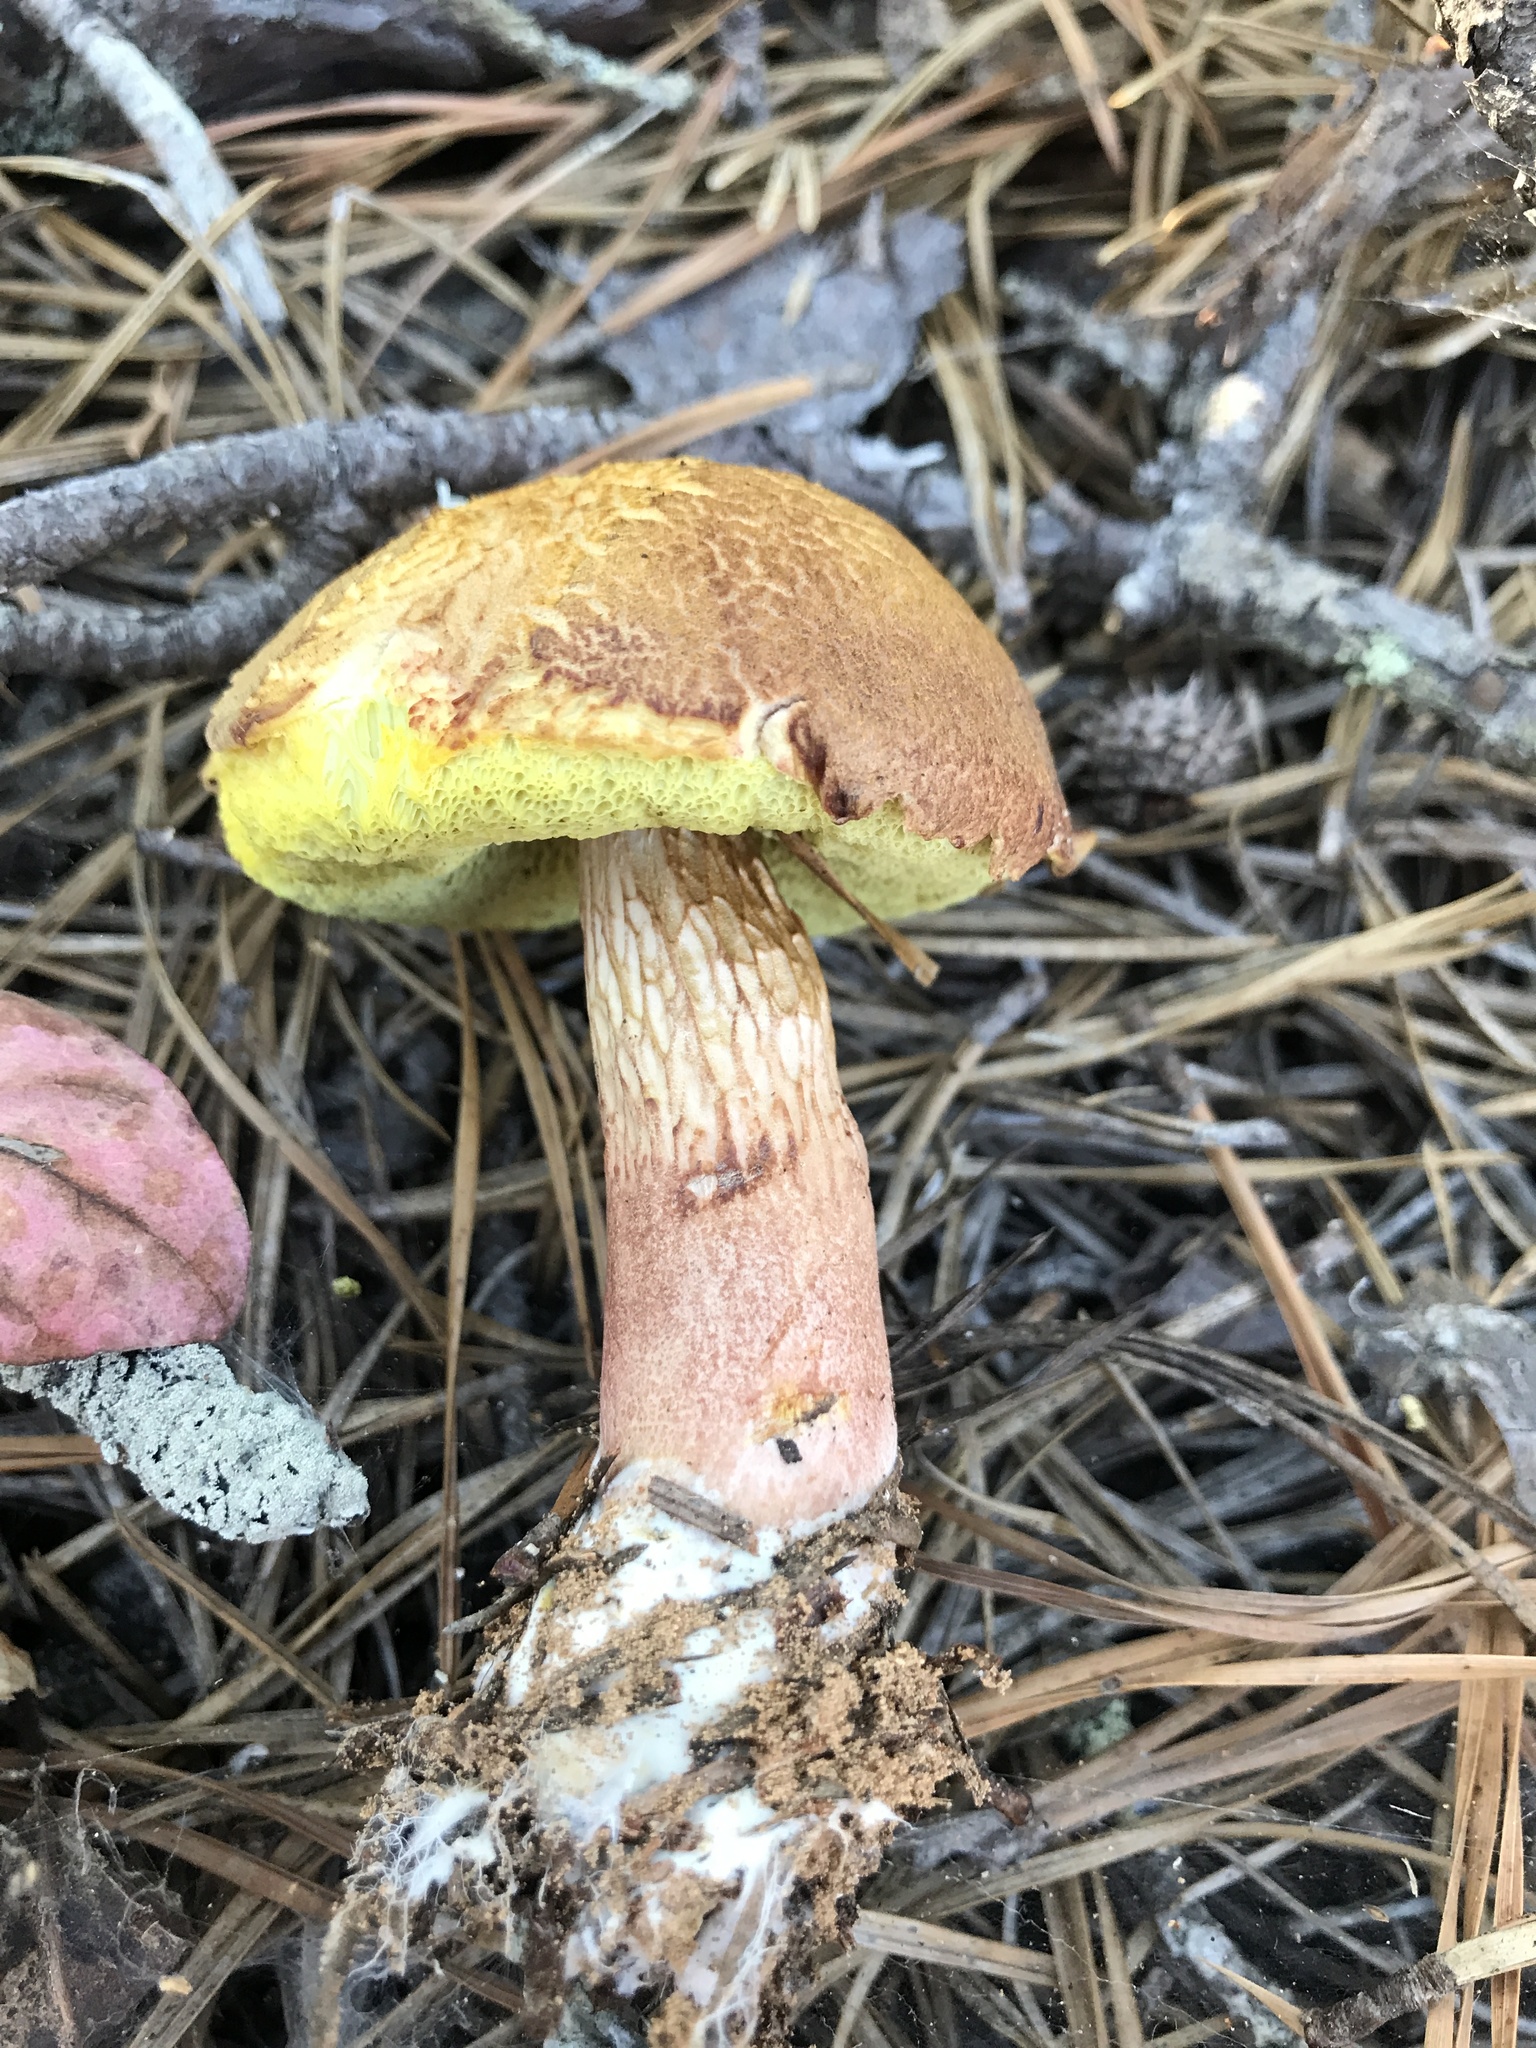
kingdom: Fungi
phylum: Basidiomycota
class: Agaricomycetes
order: Boletales
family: Boletaceae
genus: Aureoboletus
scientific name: Aureoboletus projectellus
